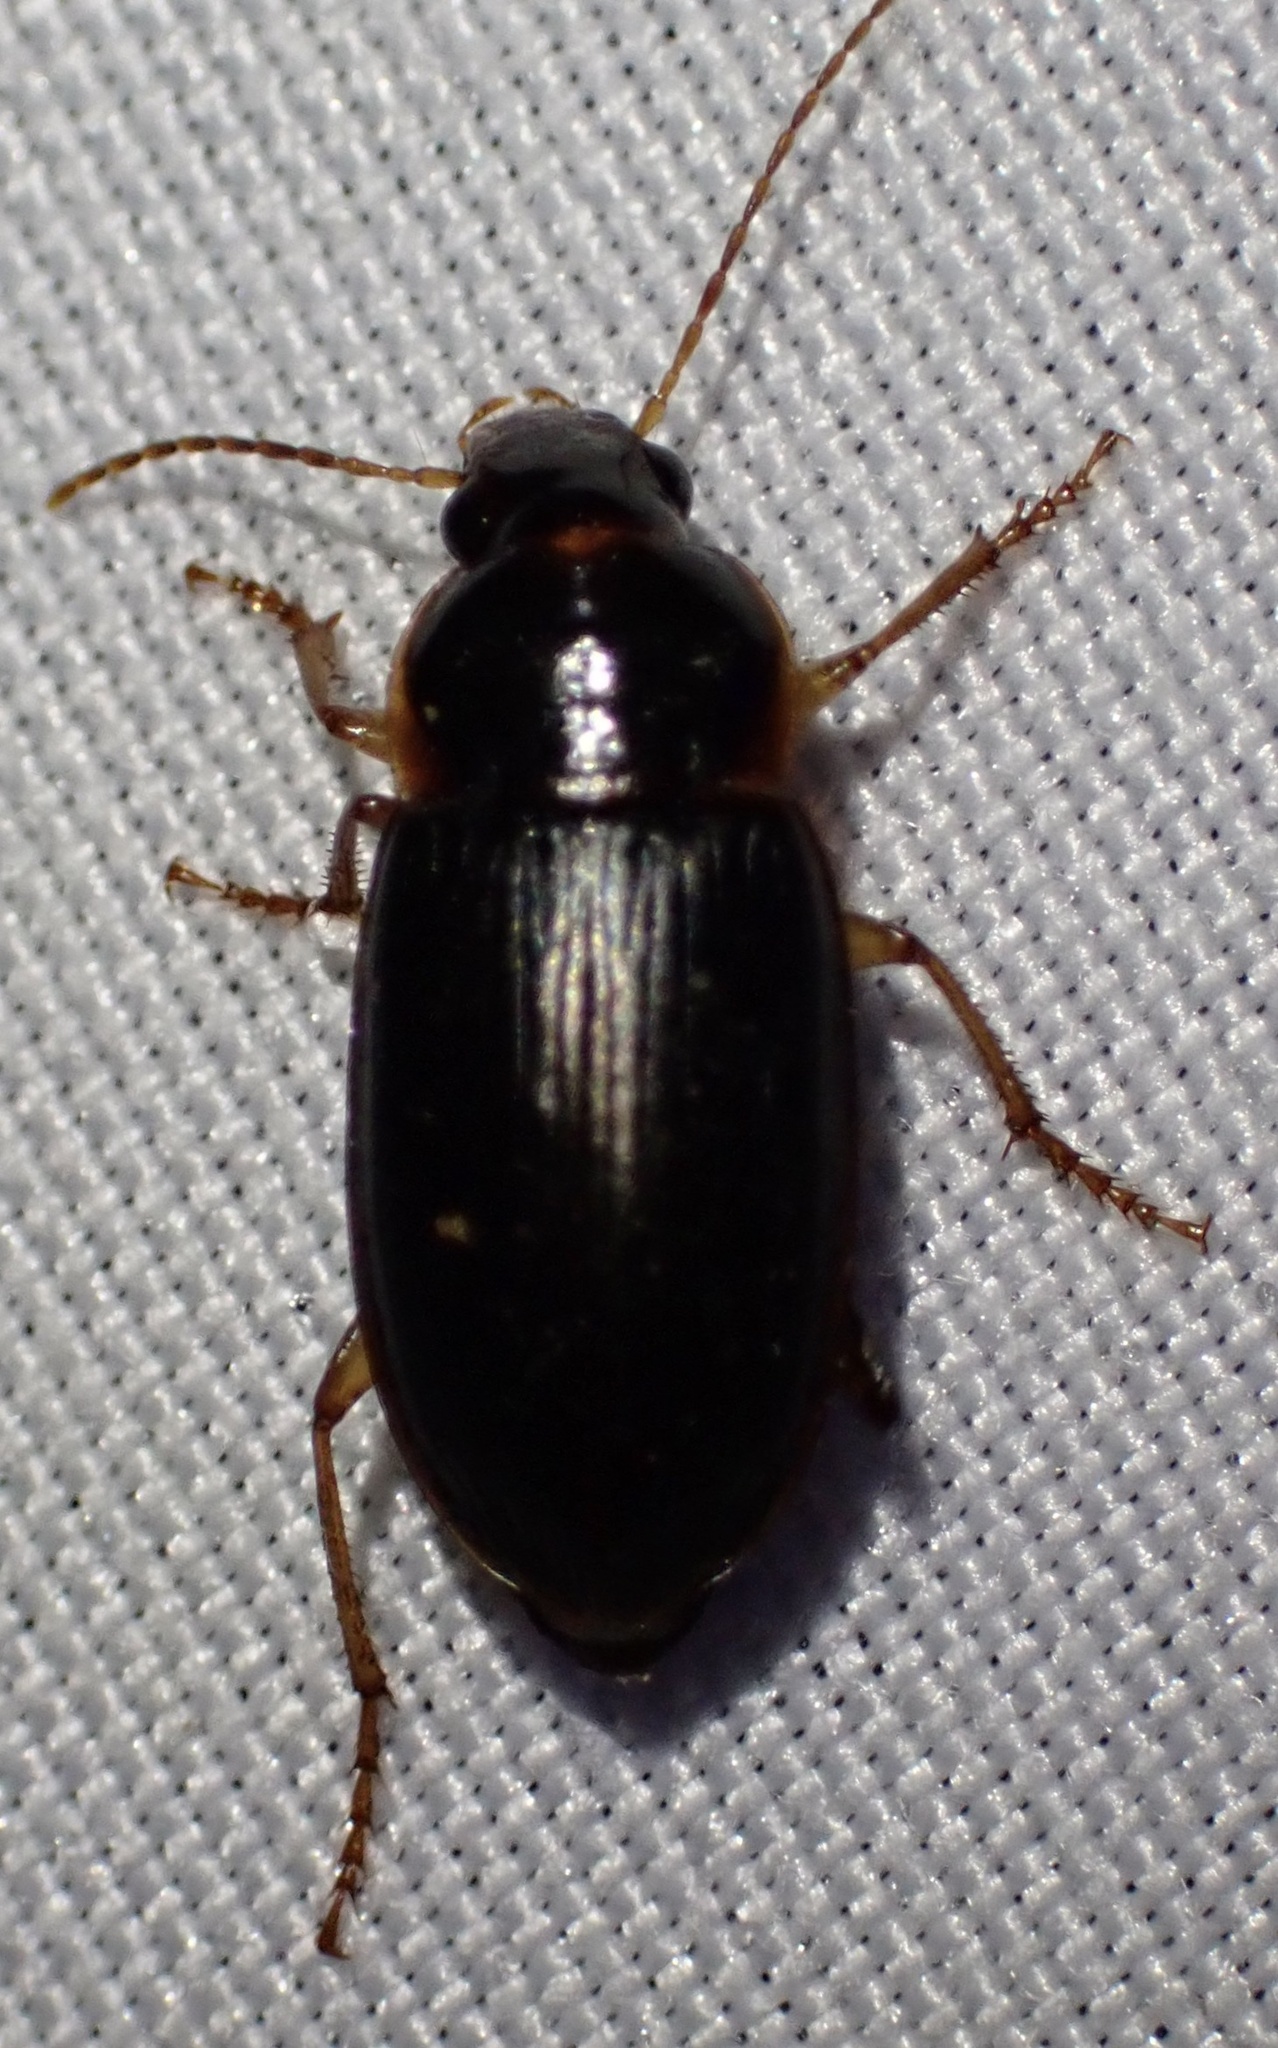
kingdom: Animalia
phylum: Arthropoda
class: Insecta
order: Coleoptera
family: Carabidae
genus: Notiobia
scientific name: Notiobia terminata
